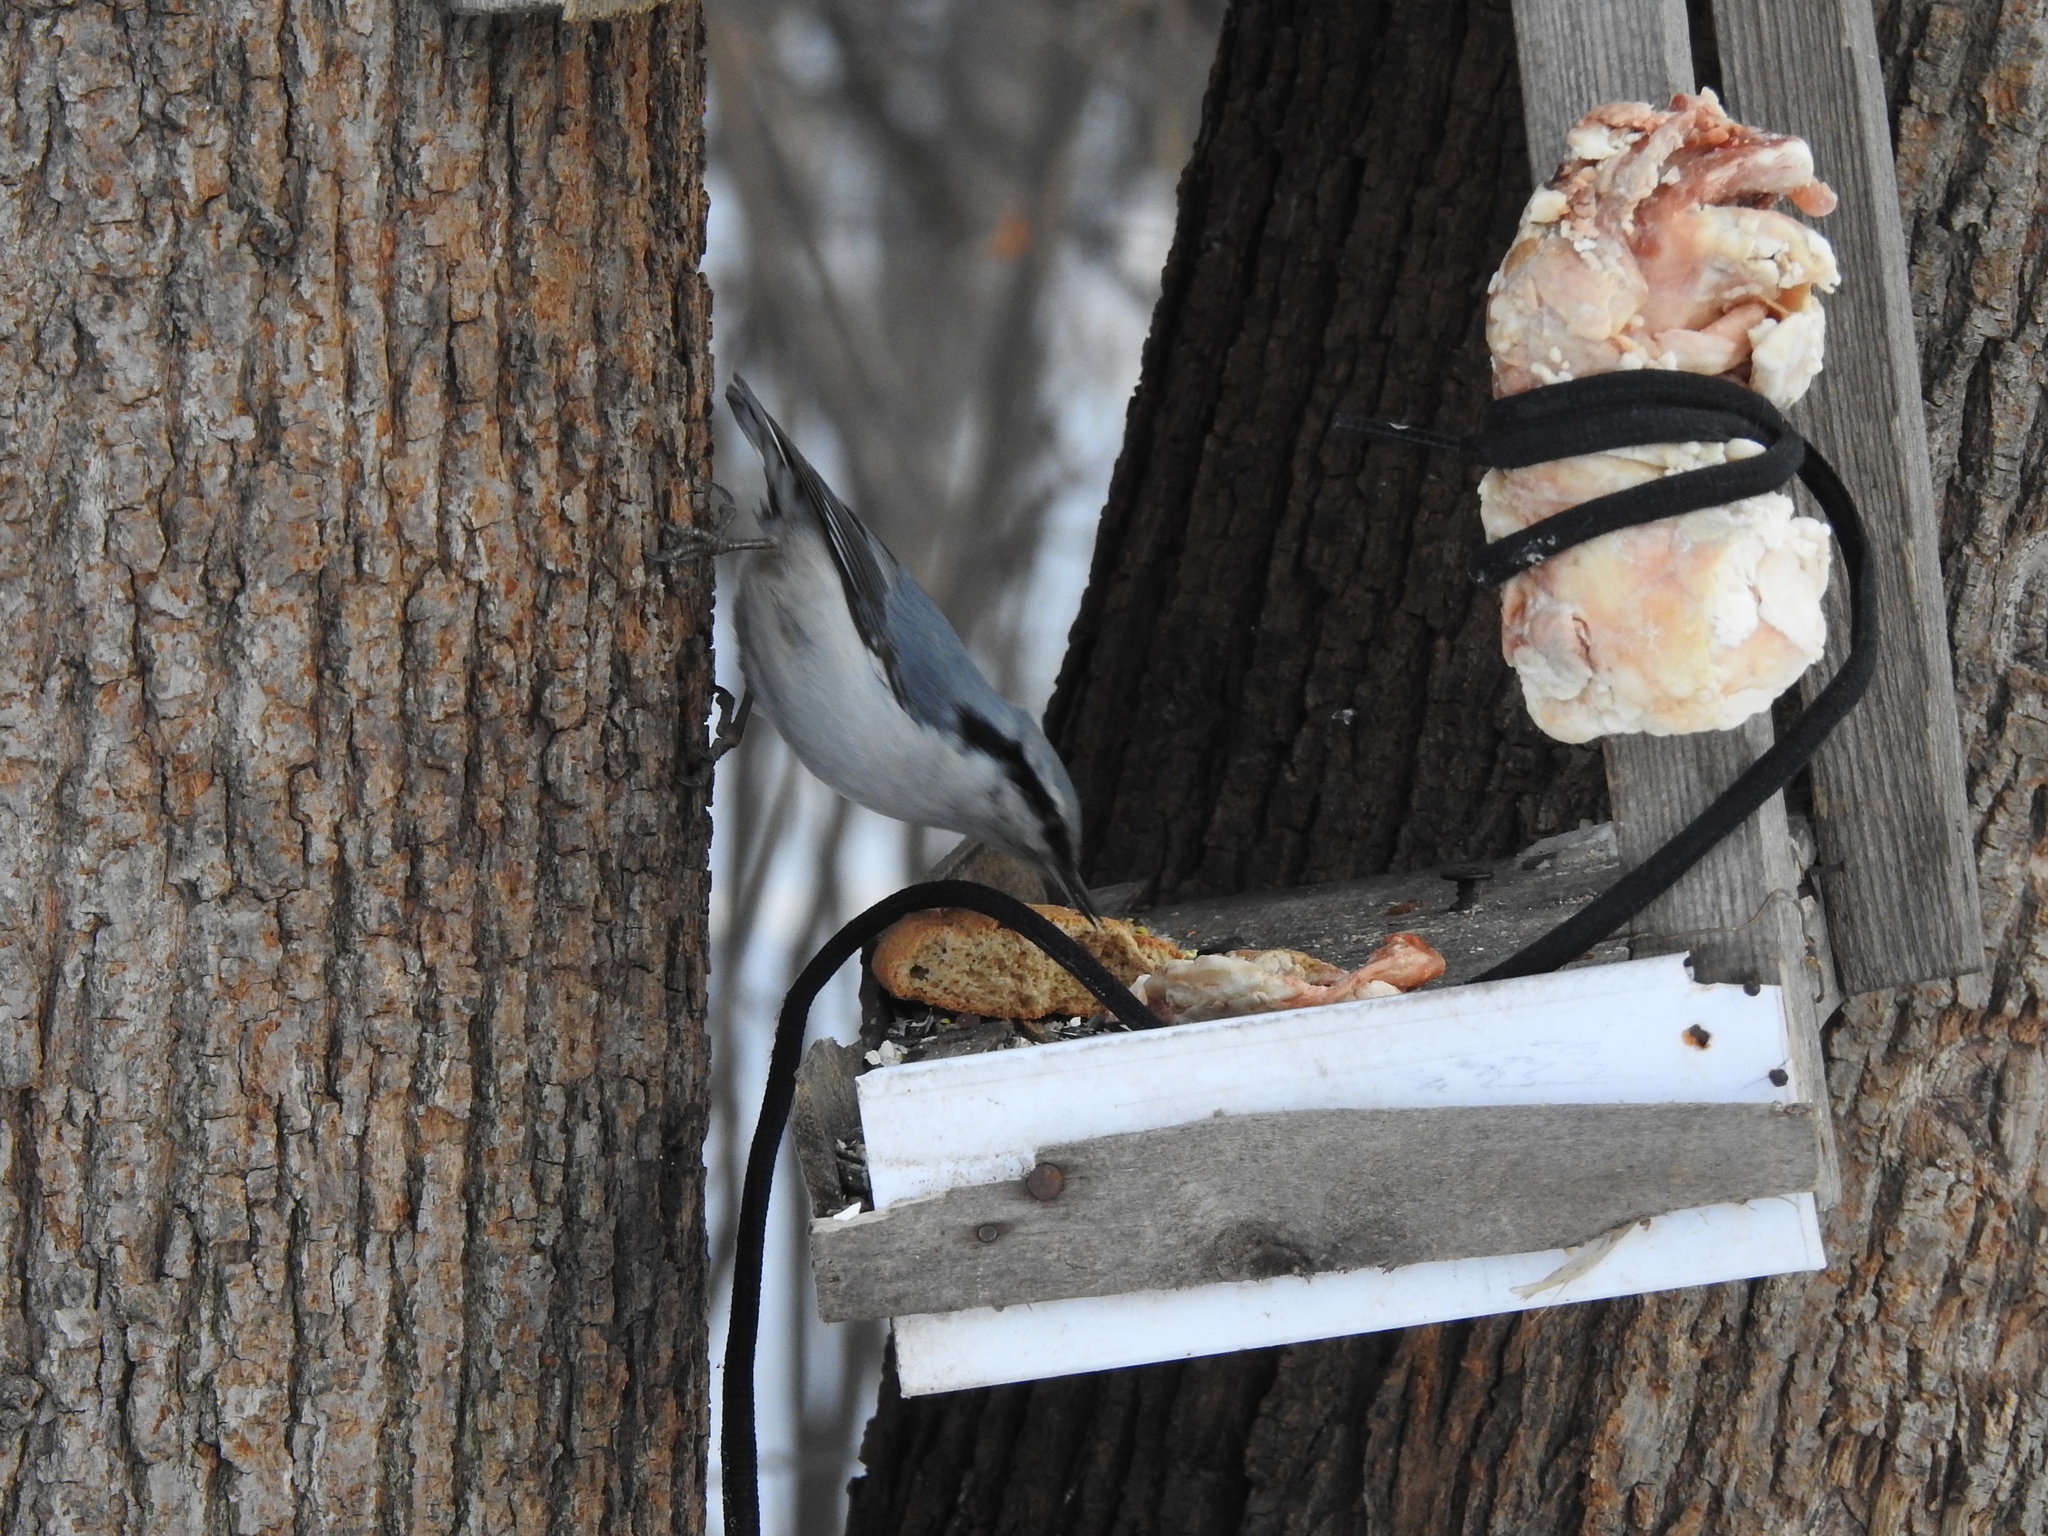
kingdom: Animalia
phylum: Chordata
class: Aves
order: Passeriformes
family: Sittidae
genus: Sitta
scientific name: Sitta europaea
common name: Eurasian nuthatch
